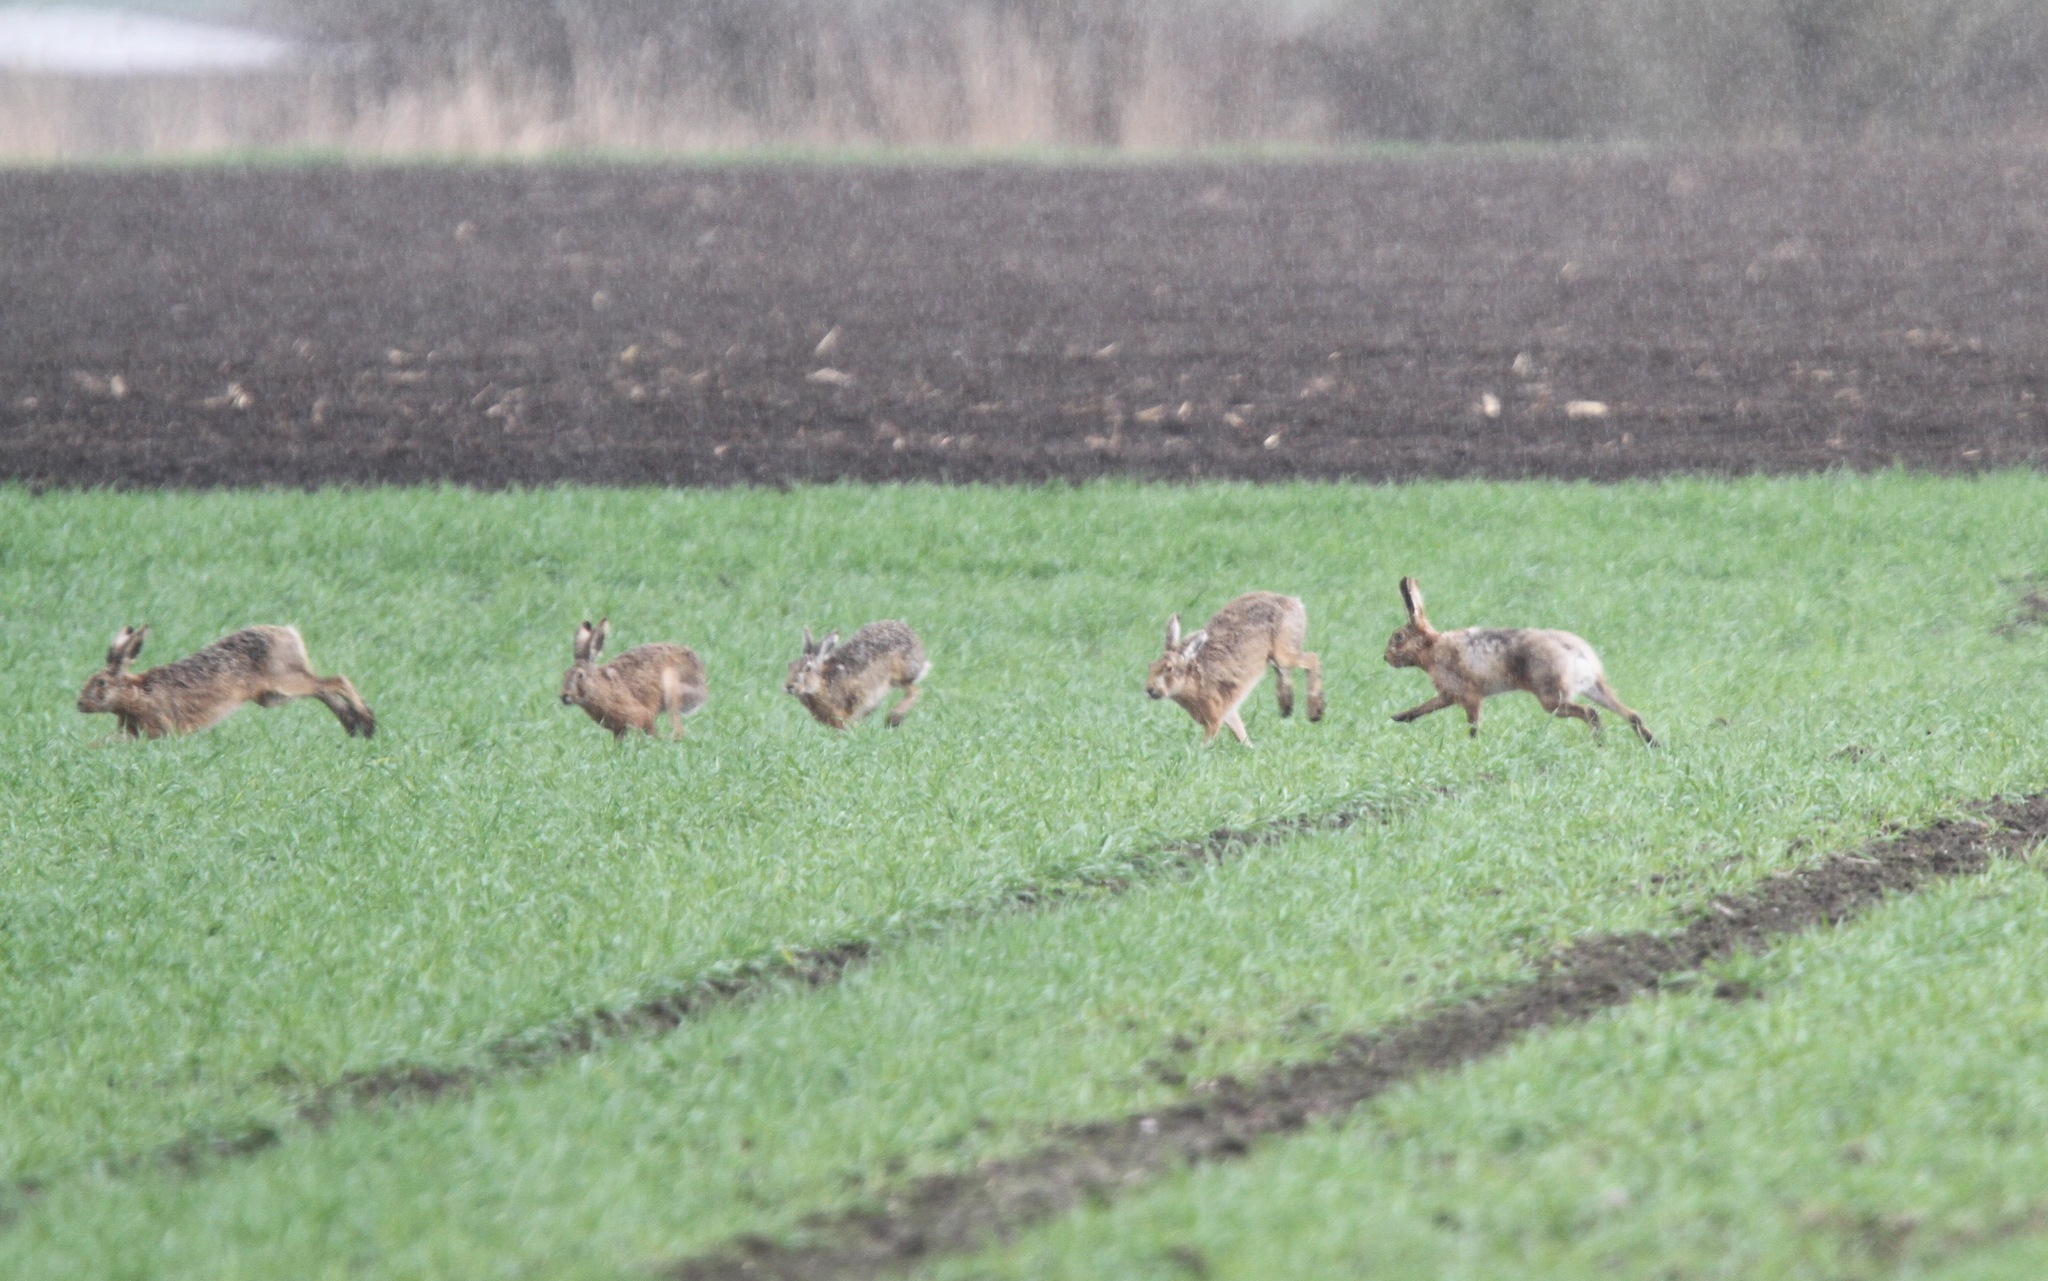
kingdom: Animalia
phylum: Chordata
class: Mammalia
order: Lagomorpha
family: Leporidae
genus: Lepus
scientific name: Lepus europaeus
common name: European hare
